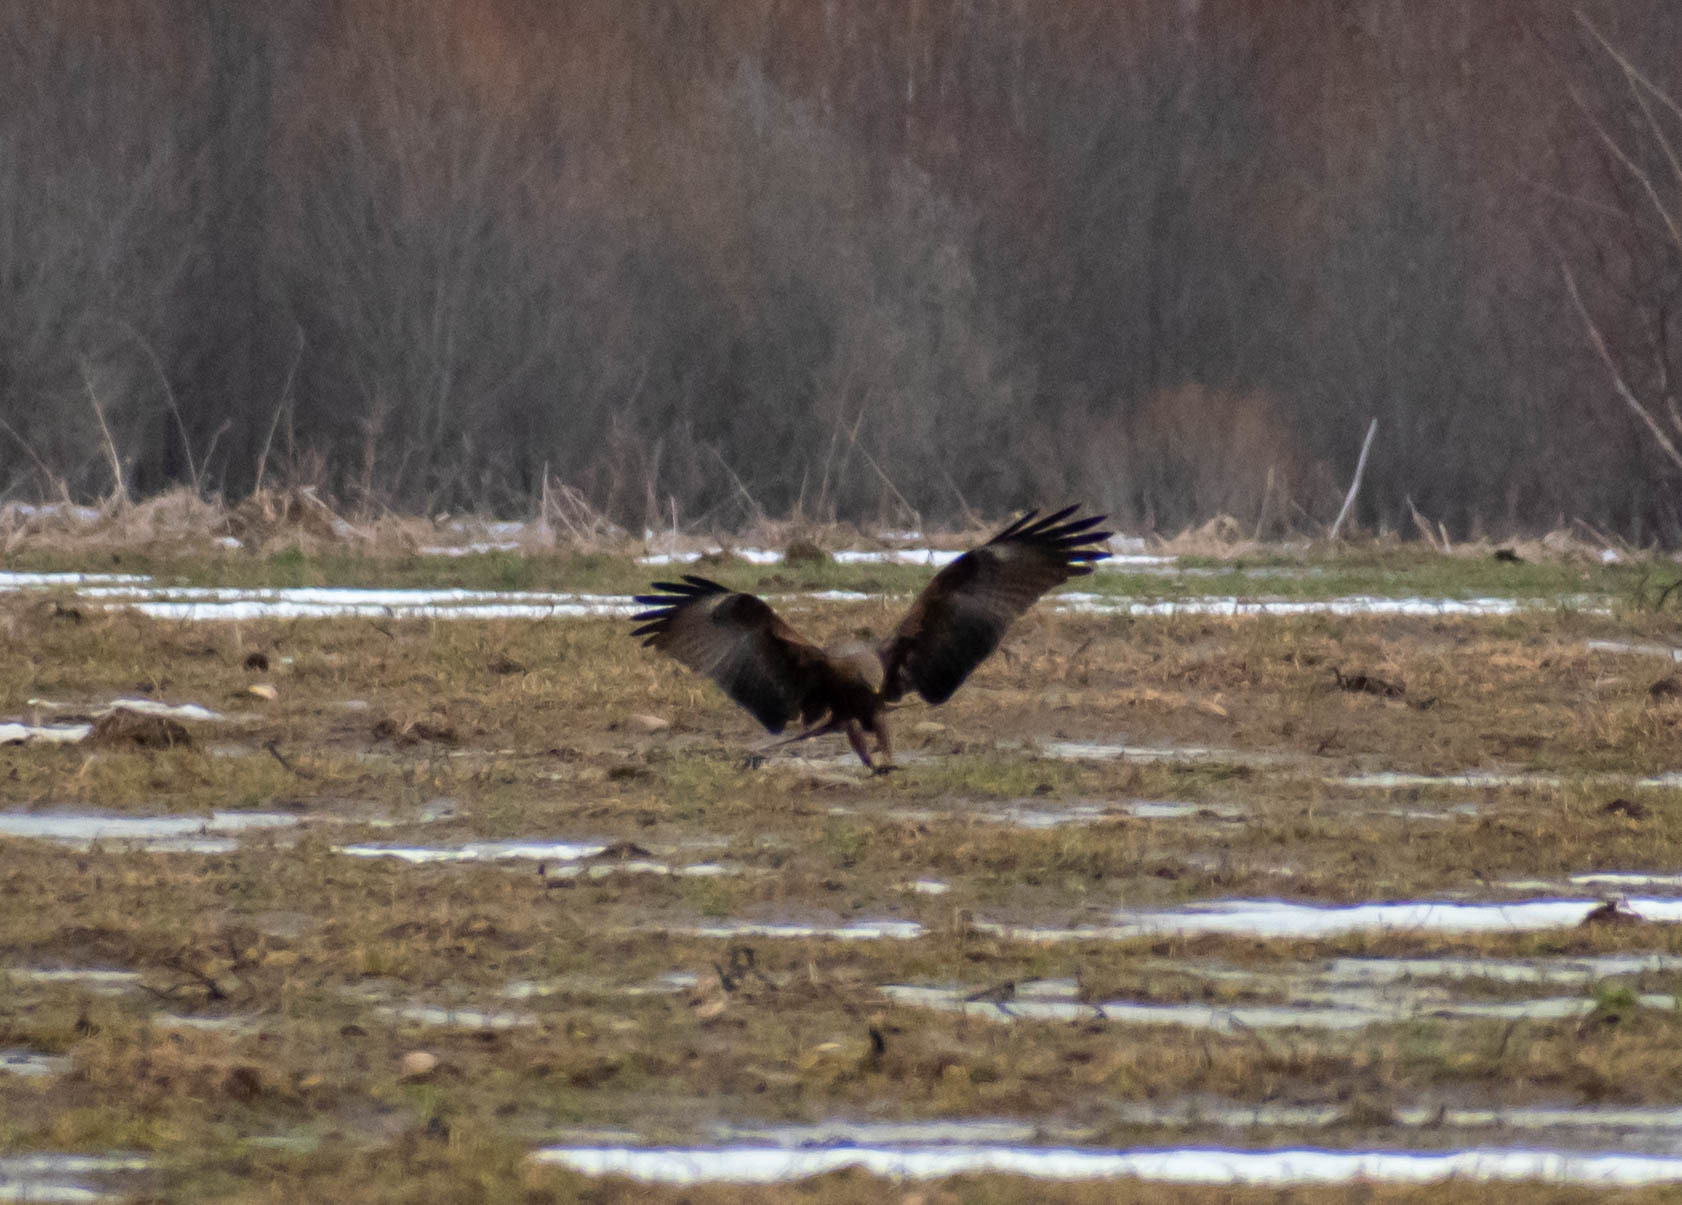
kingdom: Animalia
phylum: Chordata
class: Aves
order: Accipitriformes
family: Accipitridae
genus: Milvus
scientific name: Milvus migrans
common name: Black kite
